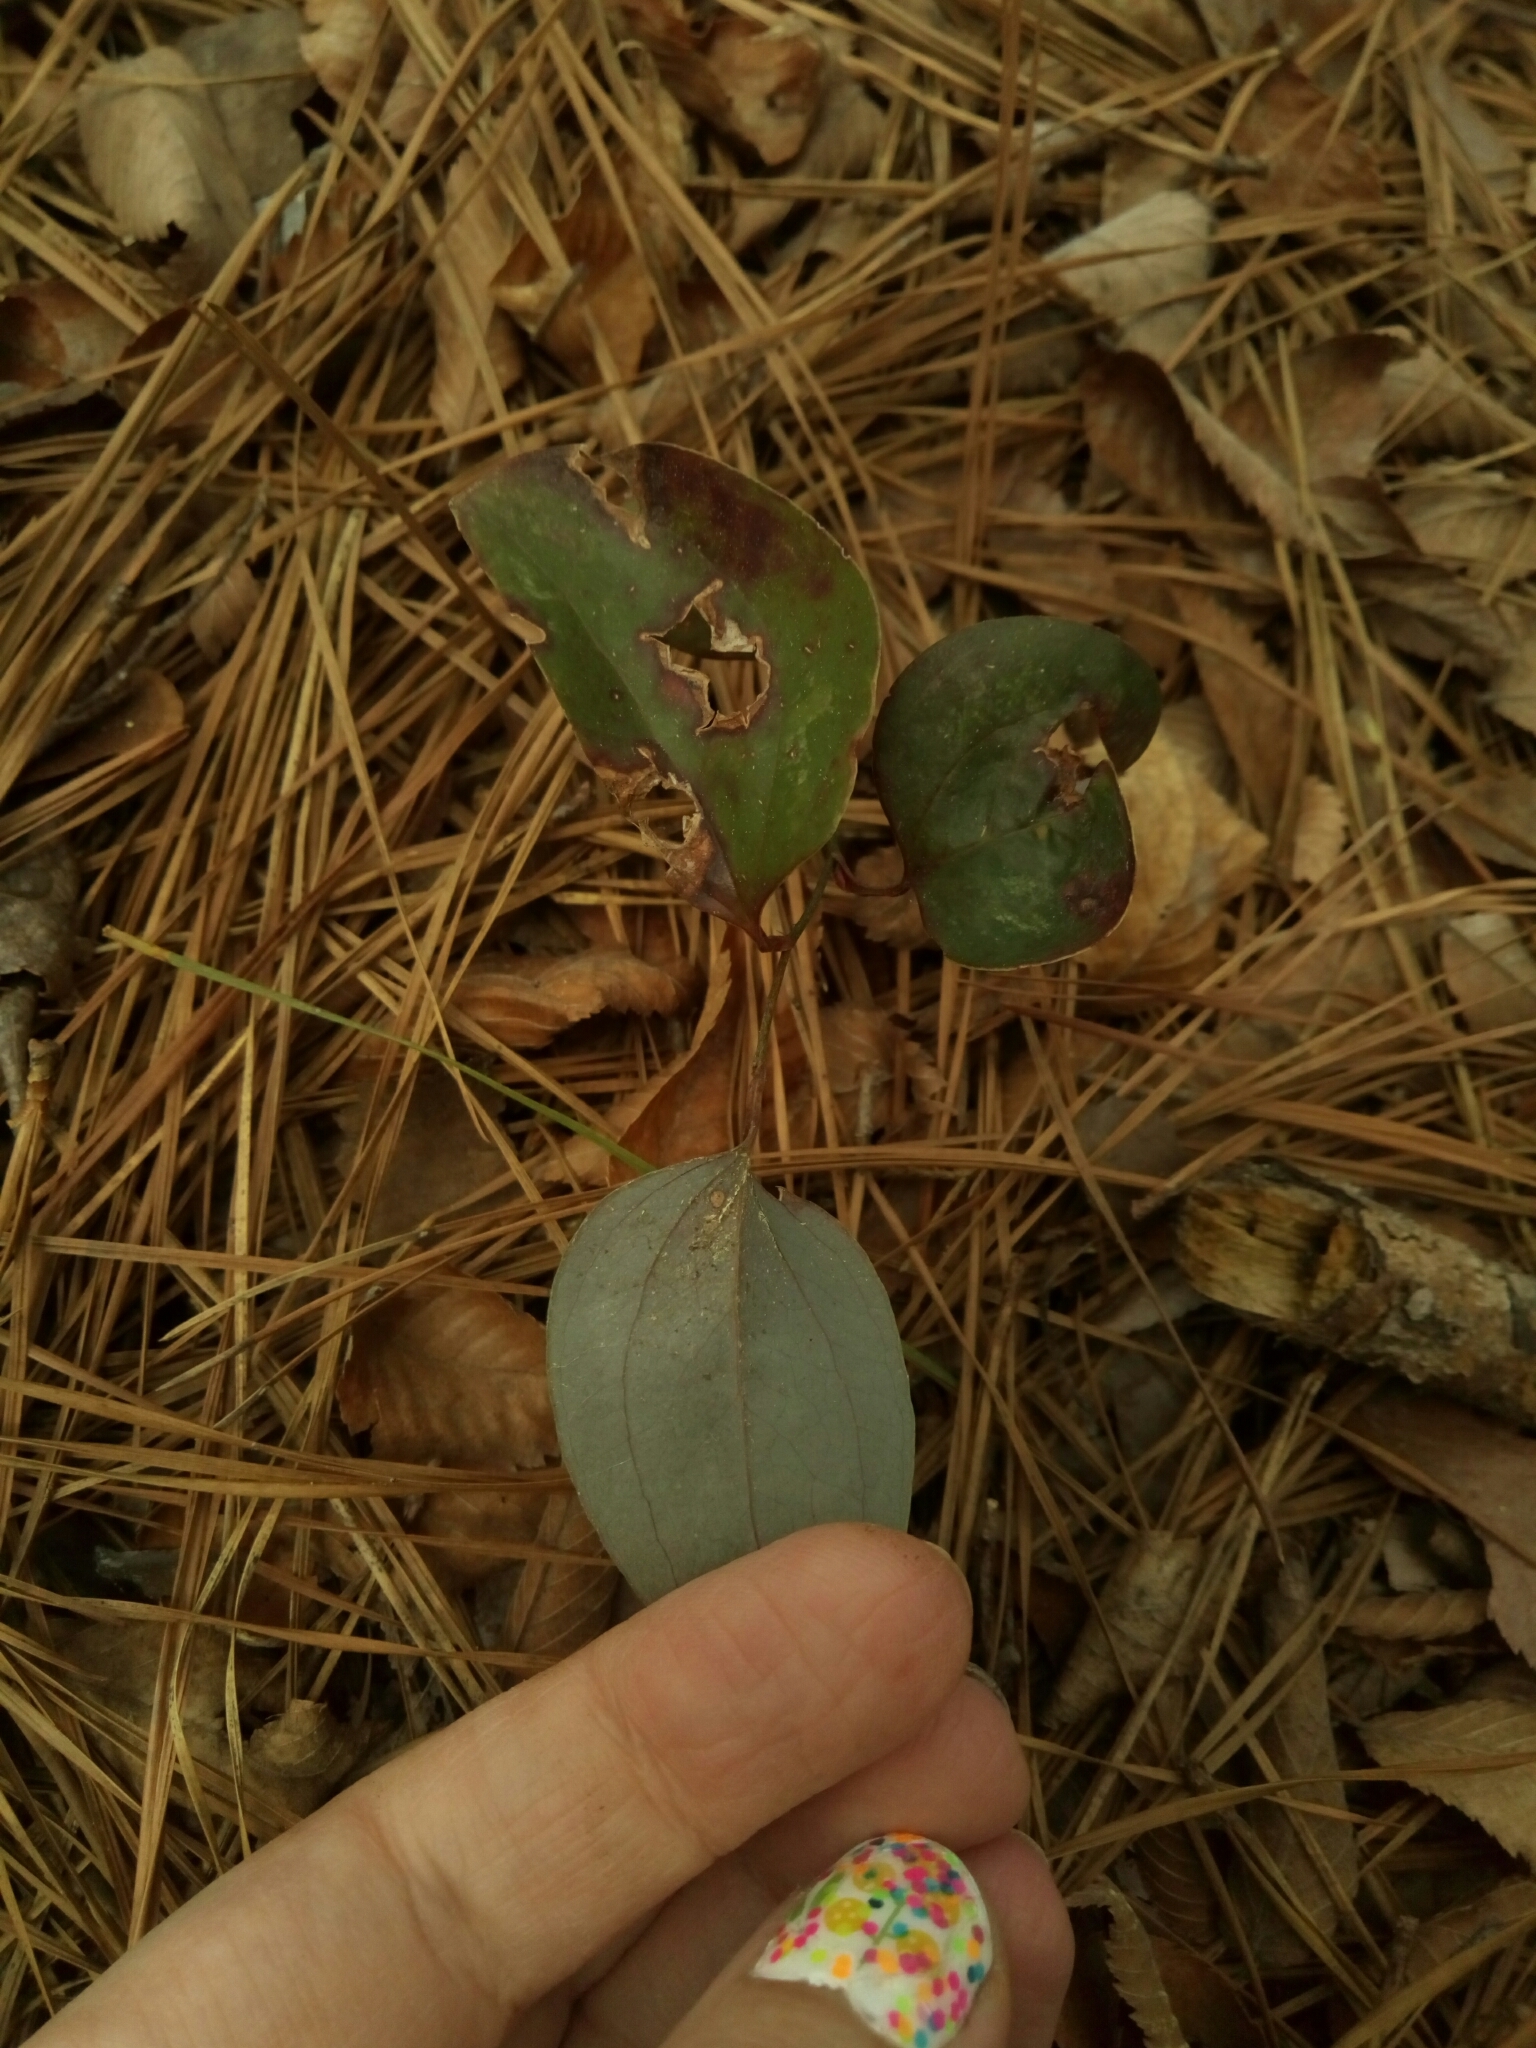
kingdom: Plantae
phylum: Tracheophyta
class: Liliopsida
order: Liliales
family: Smilacaceae
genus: Smilax
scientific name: Smilax glauca
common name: Cat greenbrier
